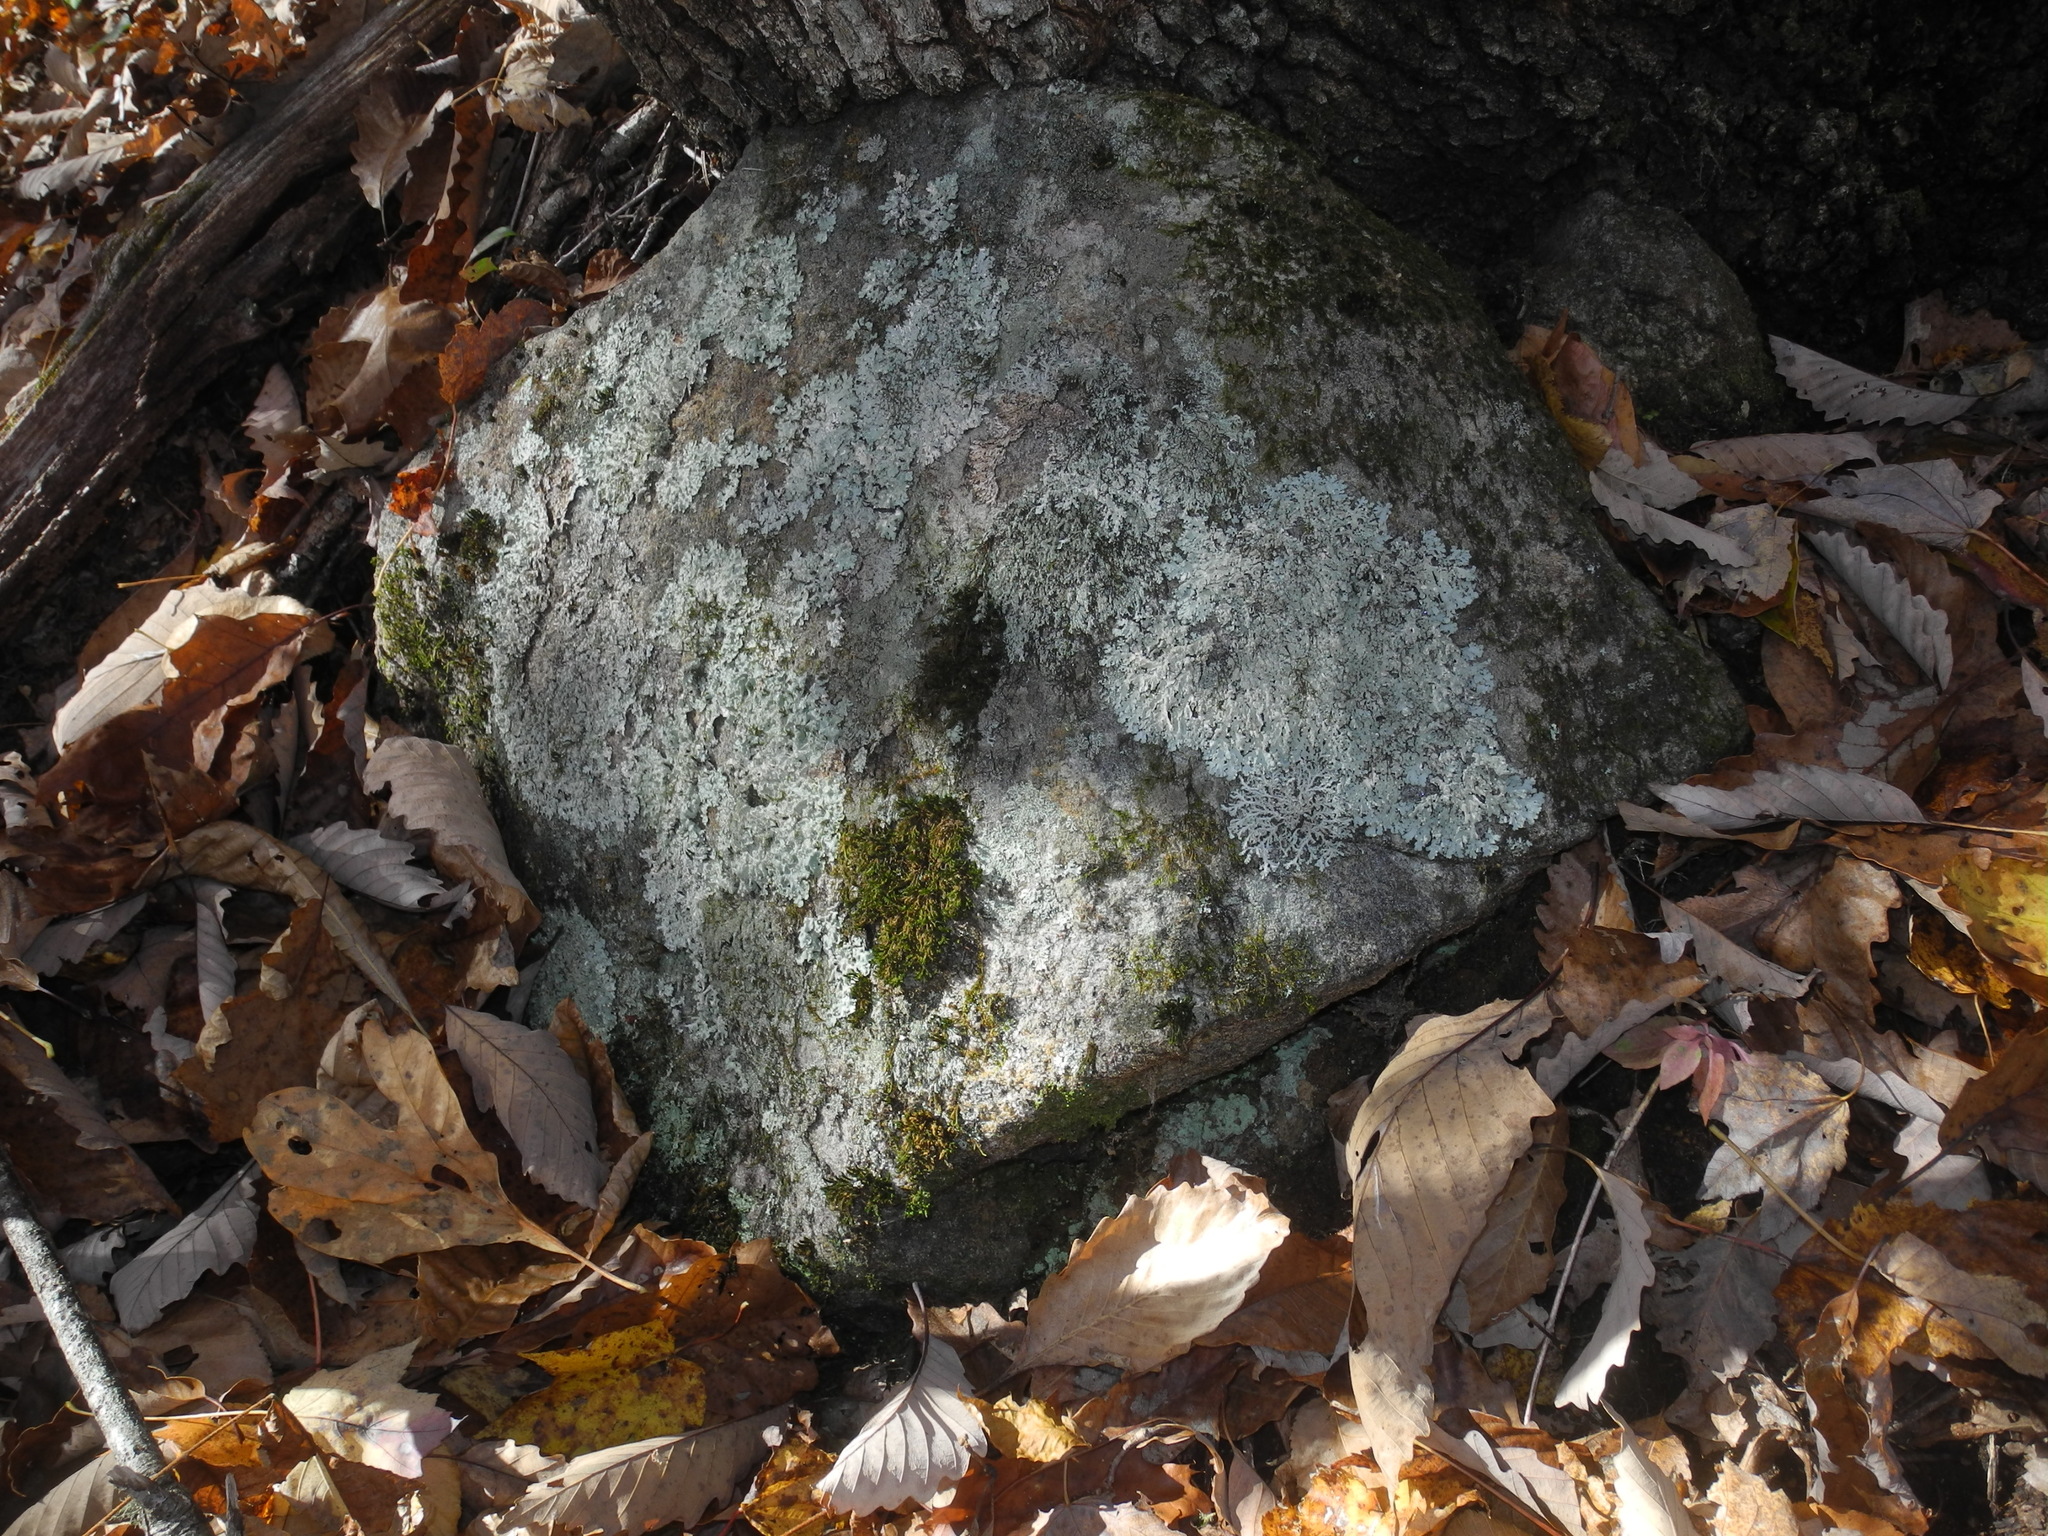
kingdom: Fungi
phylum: Ascomycota
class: Lecanoromycetes
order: Lecanorales
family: Parmeliaceae
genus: Myelochroa
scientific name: Myelochroa aurulenta
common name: Powdery axil-bristle lichen
